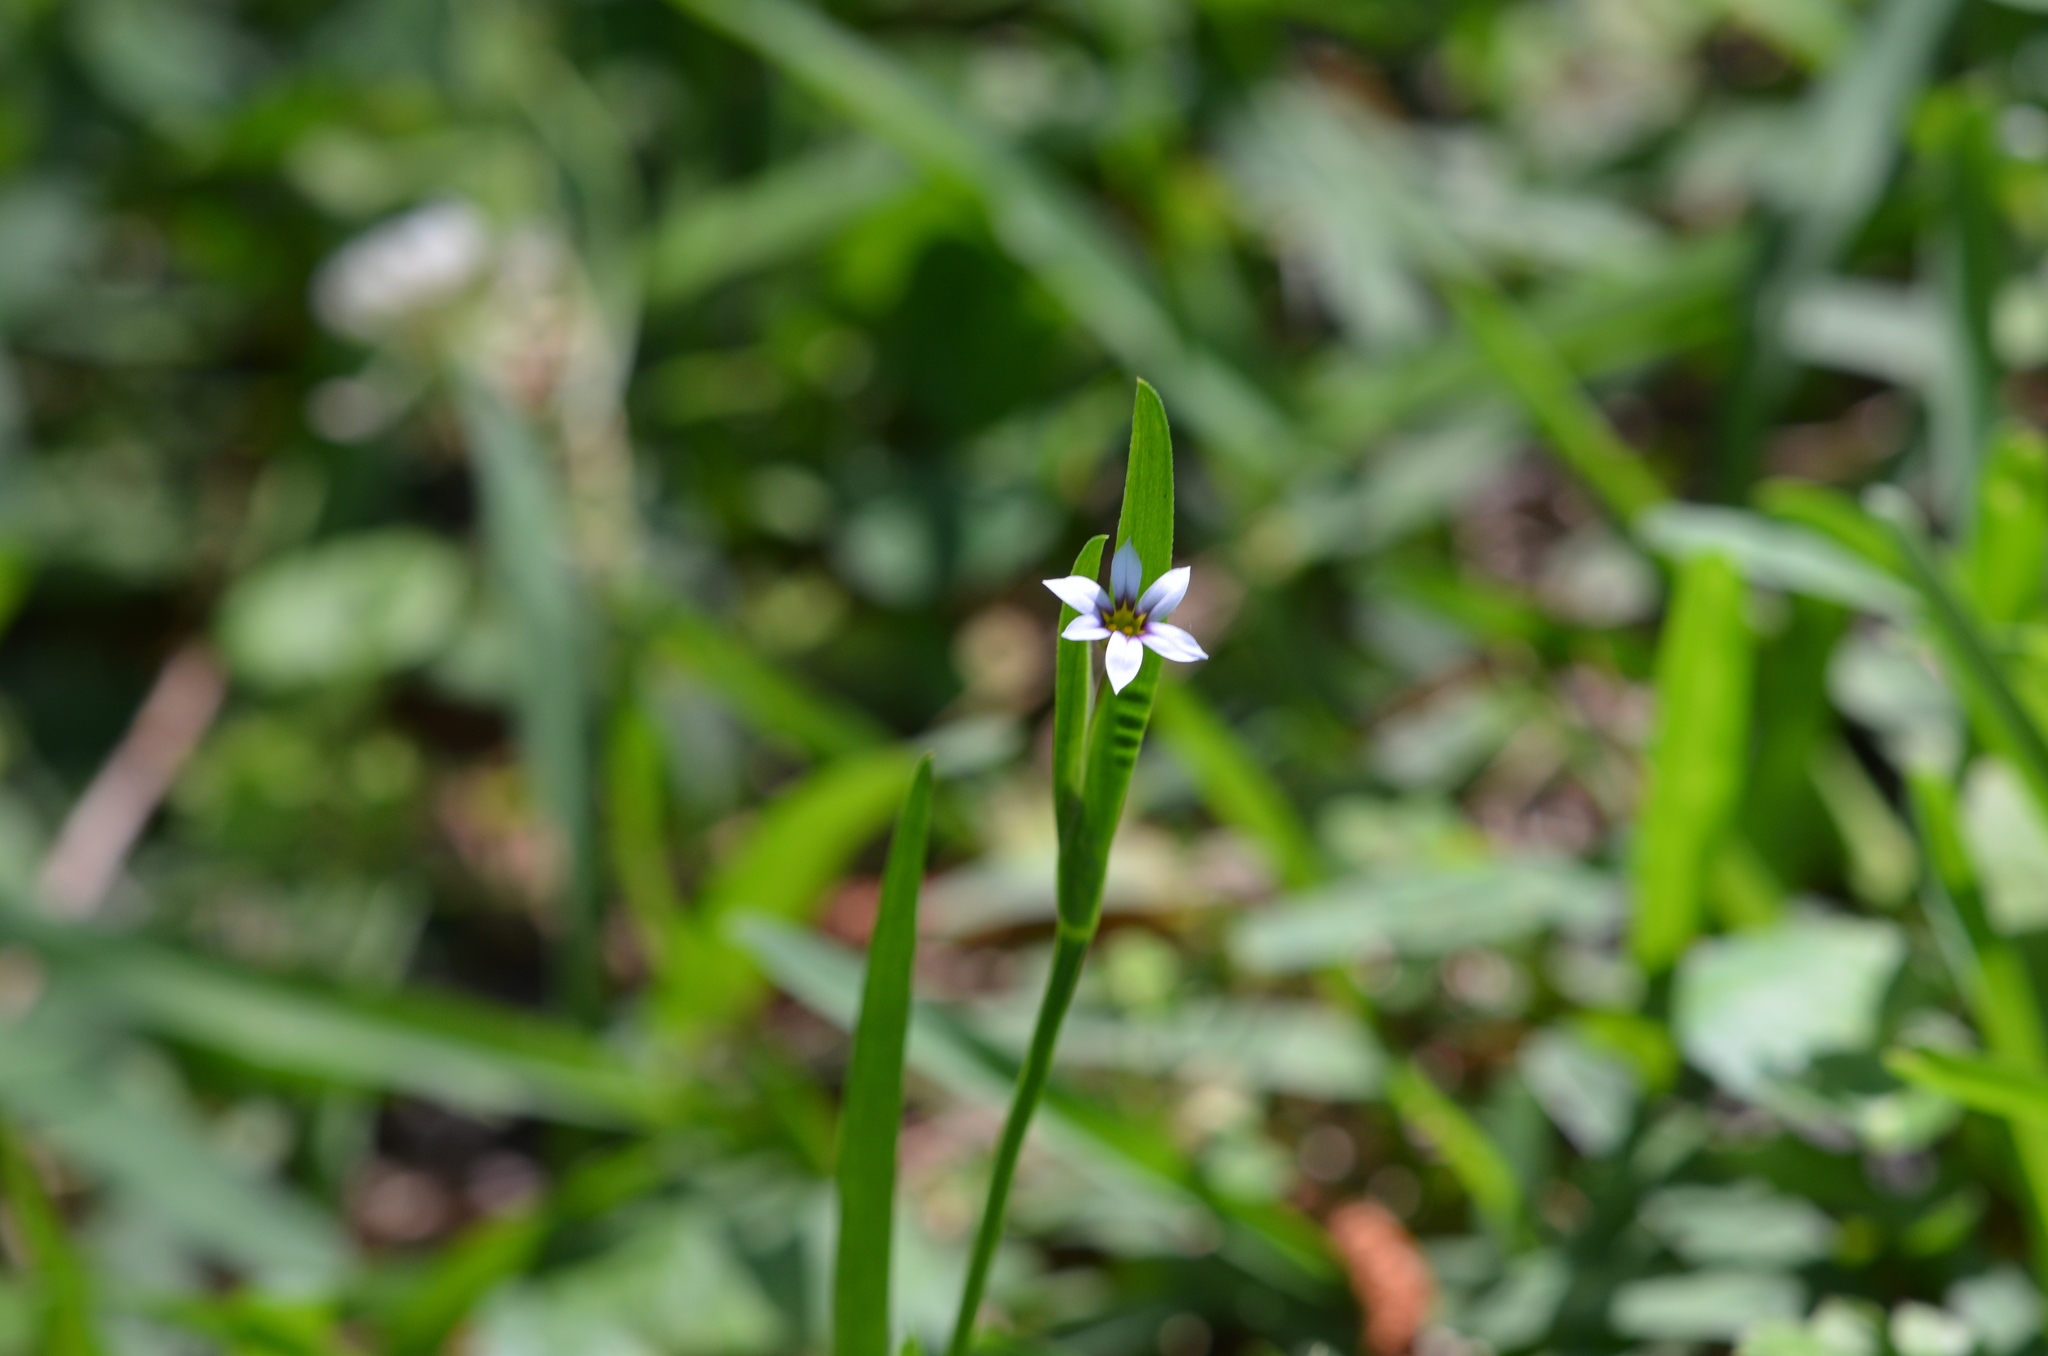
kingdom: Plantae
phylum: Tracheophyta
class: Liliopsida
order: Asparagales
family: Iridaceae
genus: Sisyrinchium
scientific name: Sisyrinchium micranthum
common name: Bermuda pigroot
